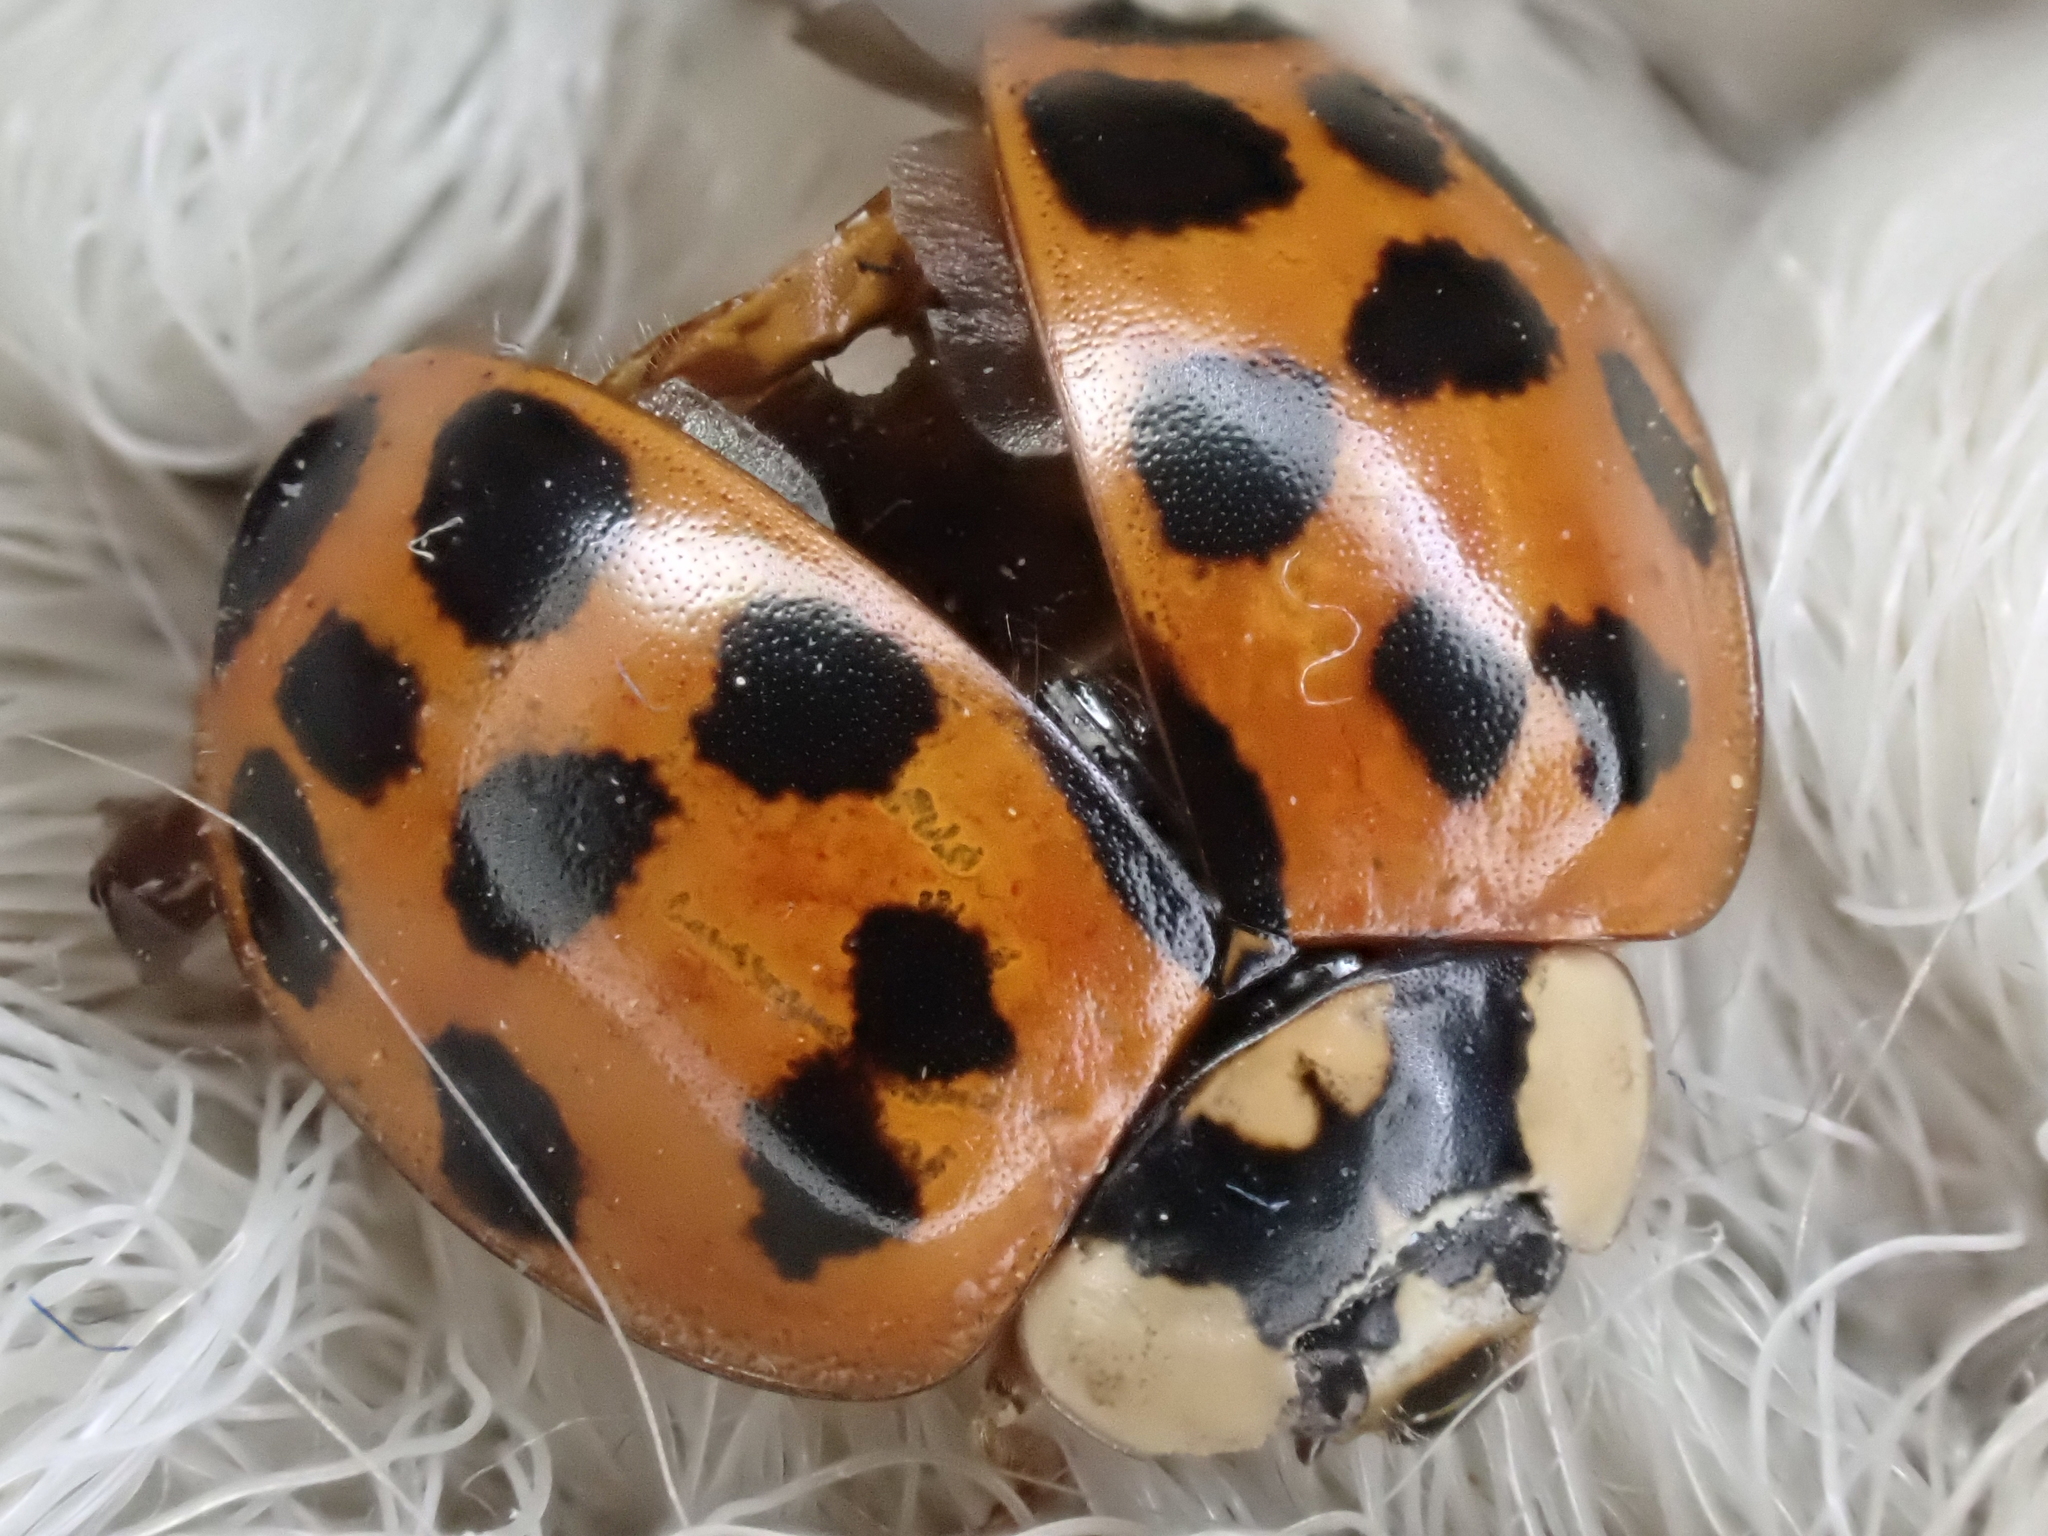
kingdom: Animalia
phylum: Arthropoda
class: Insecta
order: Coleoptera
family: Coccinellidae
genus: Harmonia
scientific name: Harmonia axyridis
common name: Harlequin ladybird
